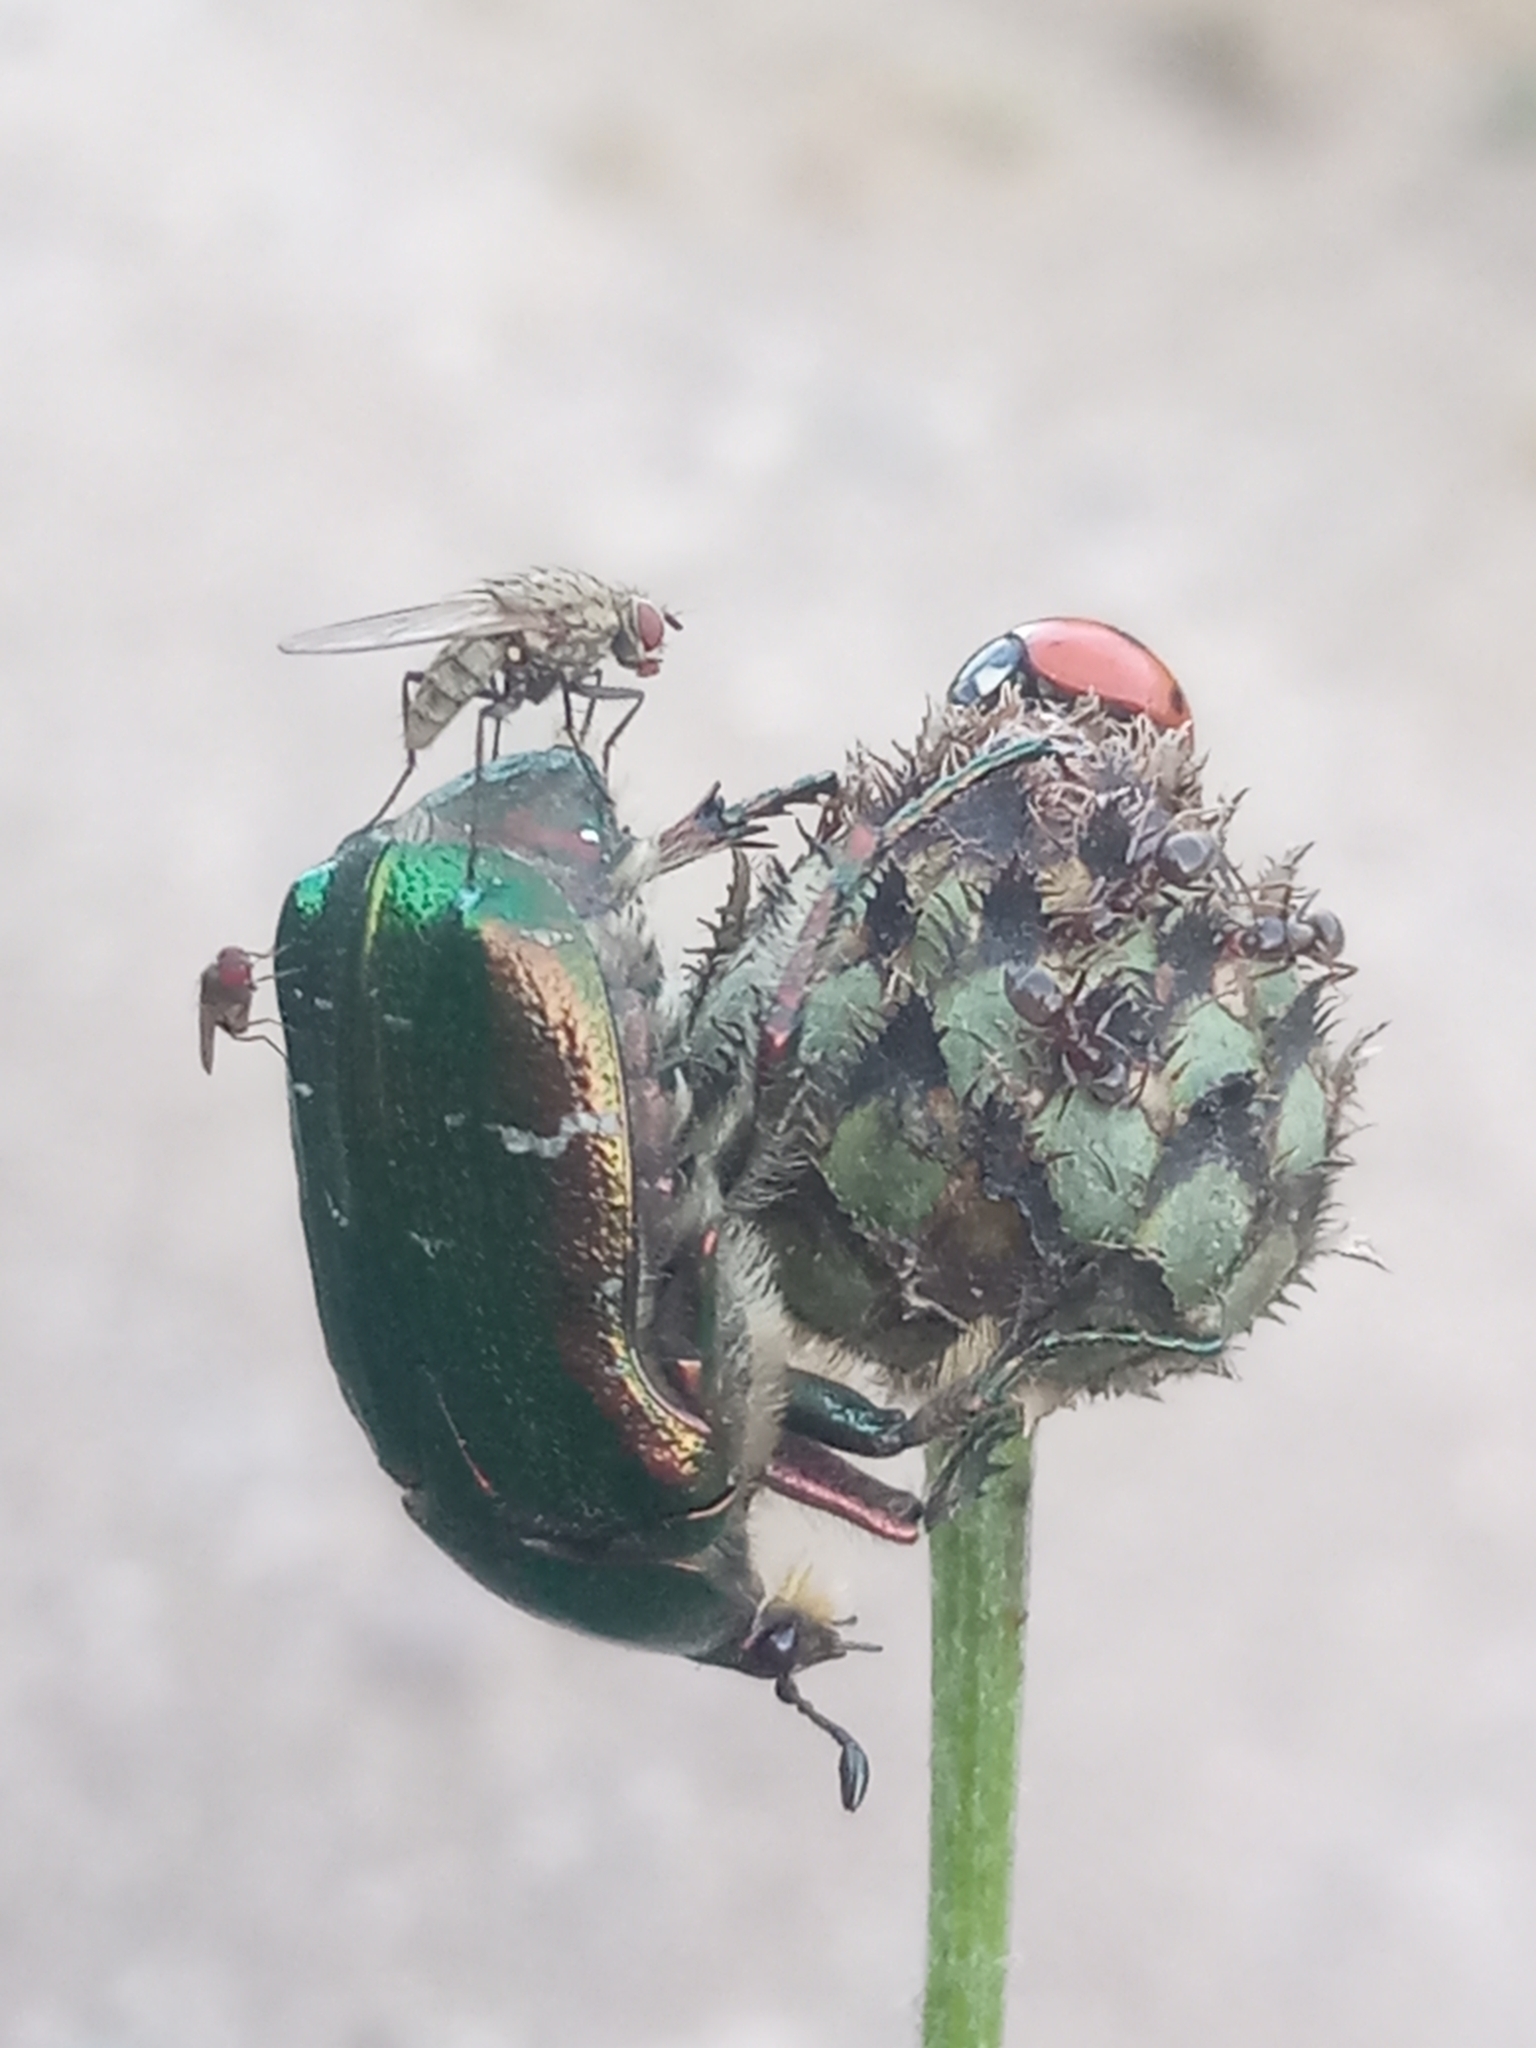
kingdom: Animalia
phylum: Arthropoda
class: Insecta
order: Coleoptera
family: Scarabaeidae
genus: Cetonia
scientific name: Cetonia aurata
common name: Rose chafer
